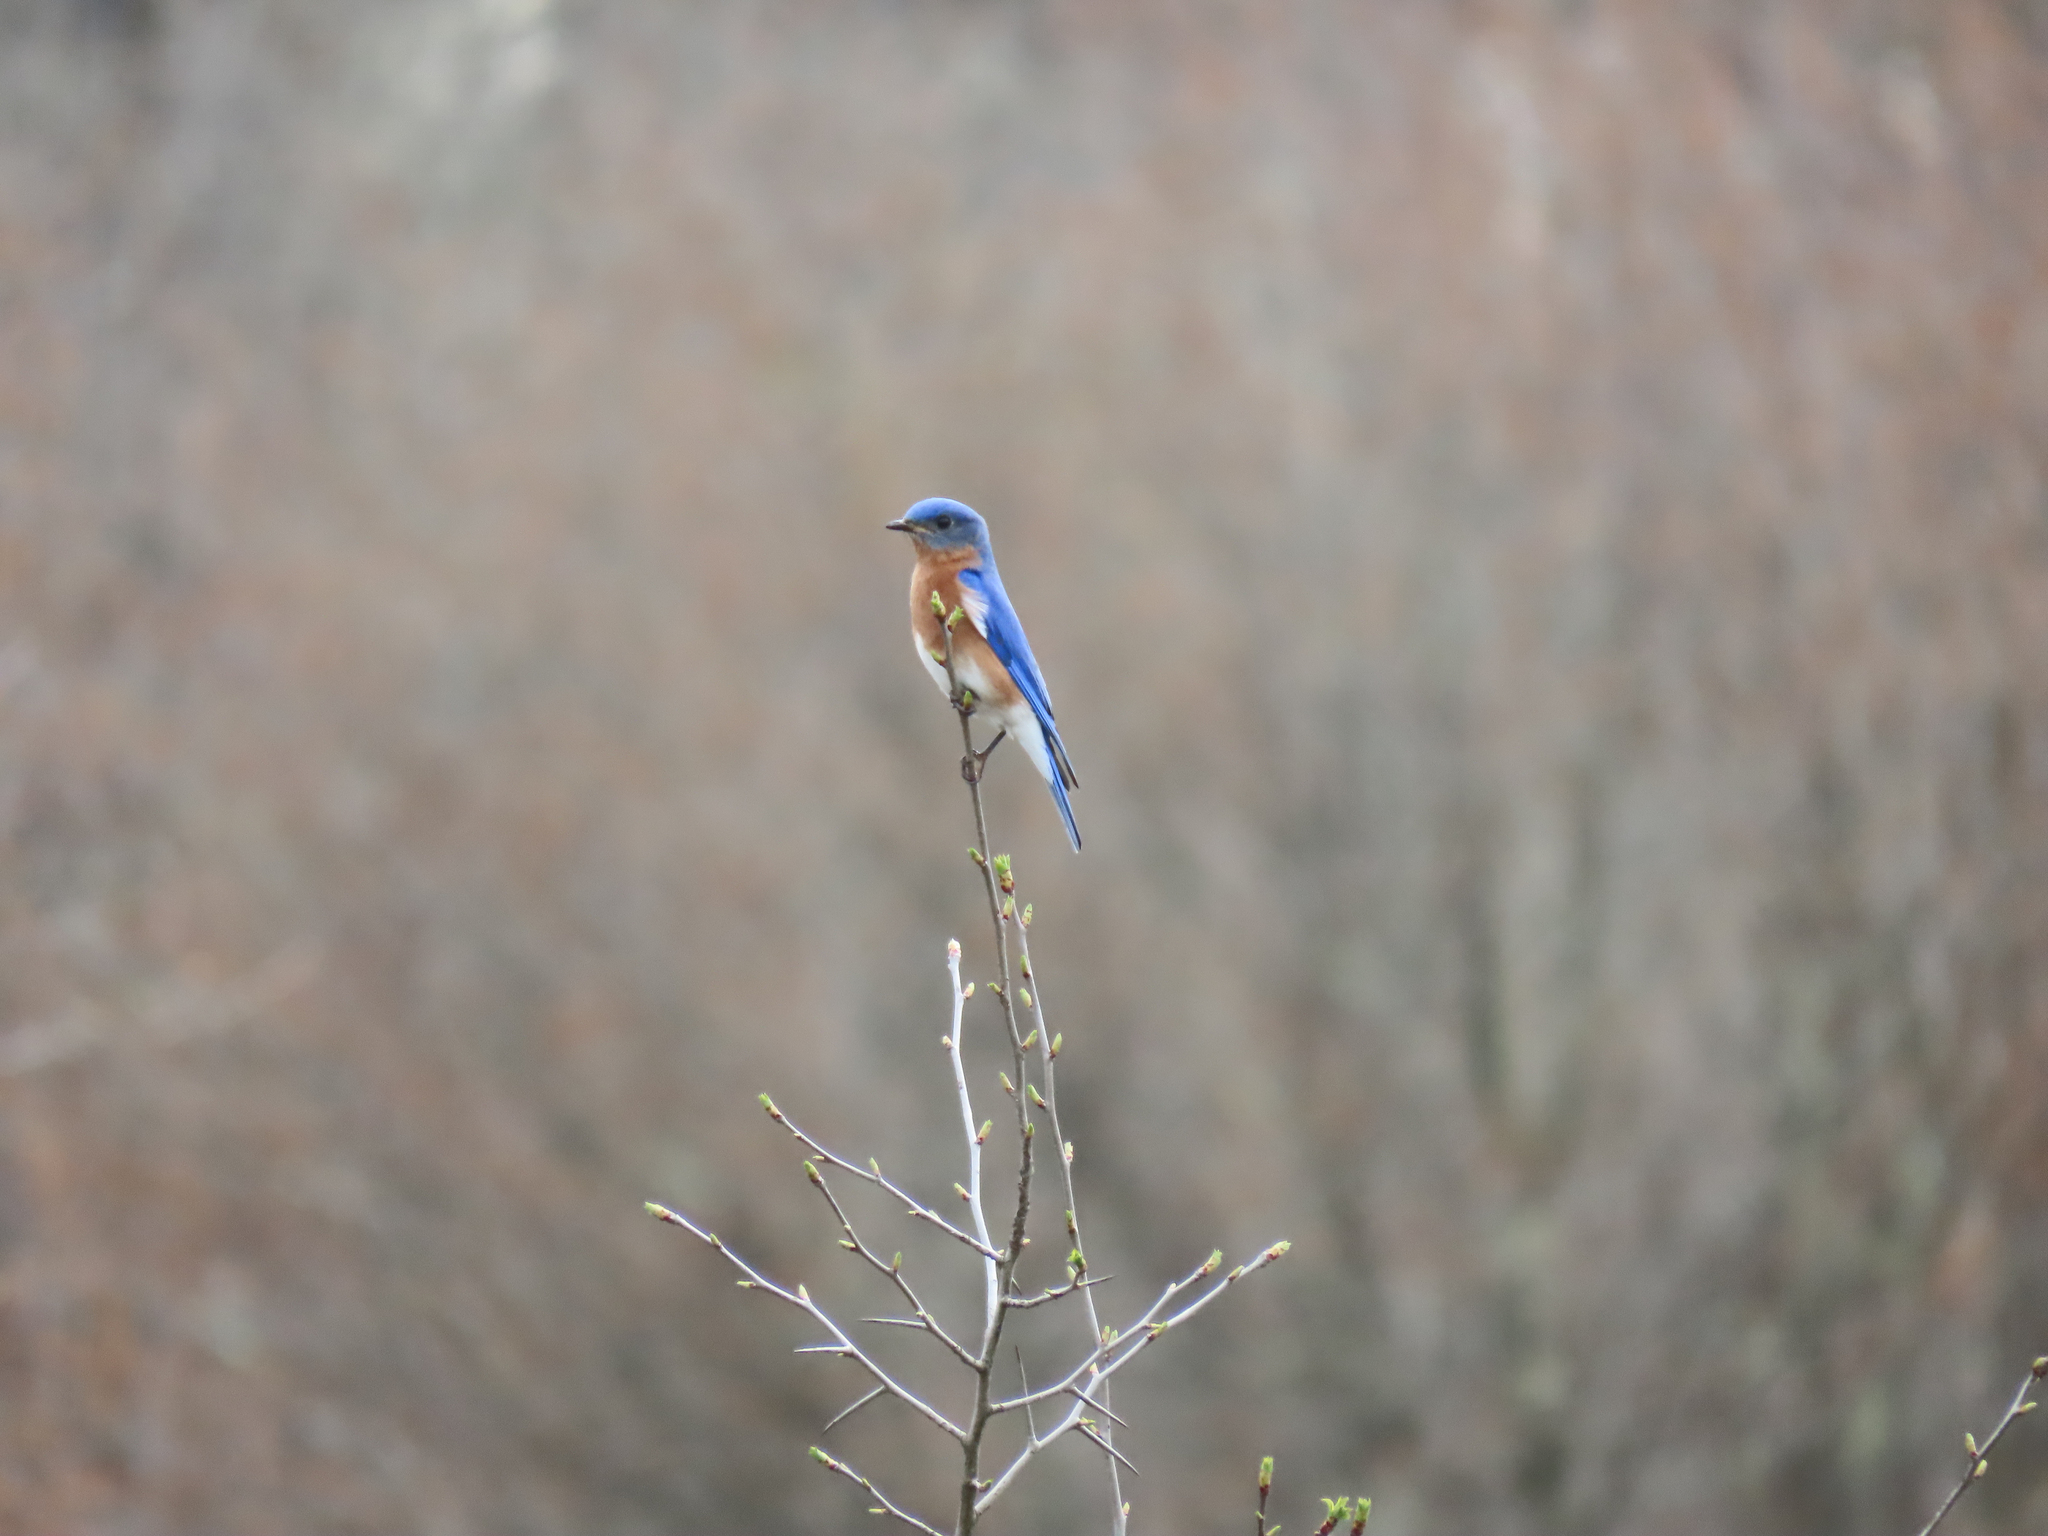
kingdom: Animalia
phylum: Chordata
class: Aves
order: Passeriformes
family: Turdidae
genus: Sialia
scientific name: Sialia sialis
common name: Eastern bluebird
